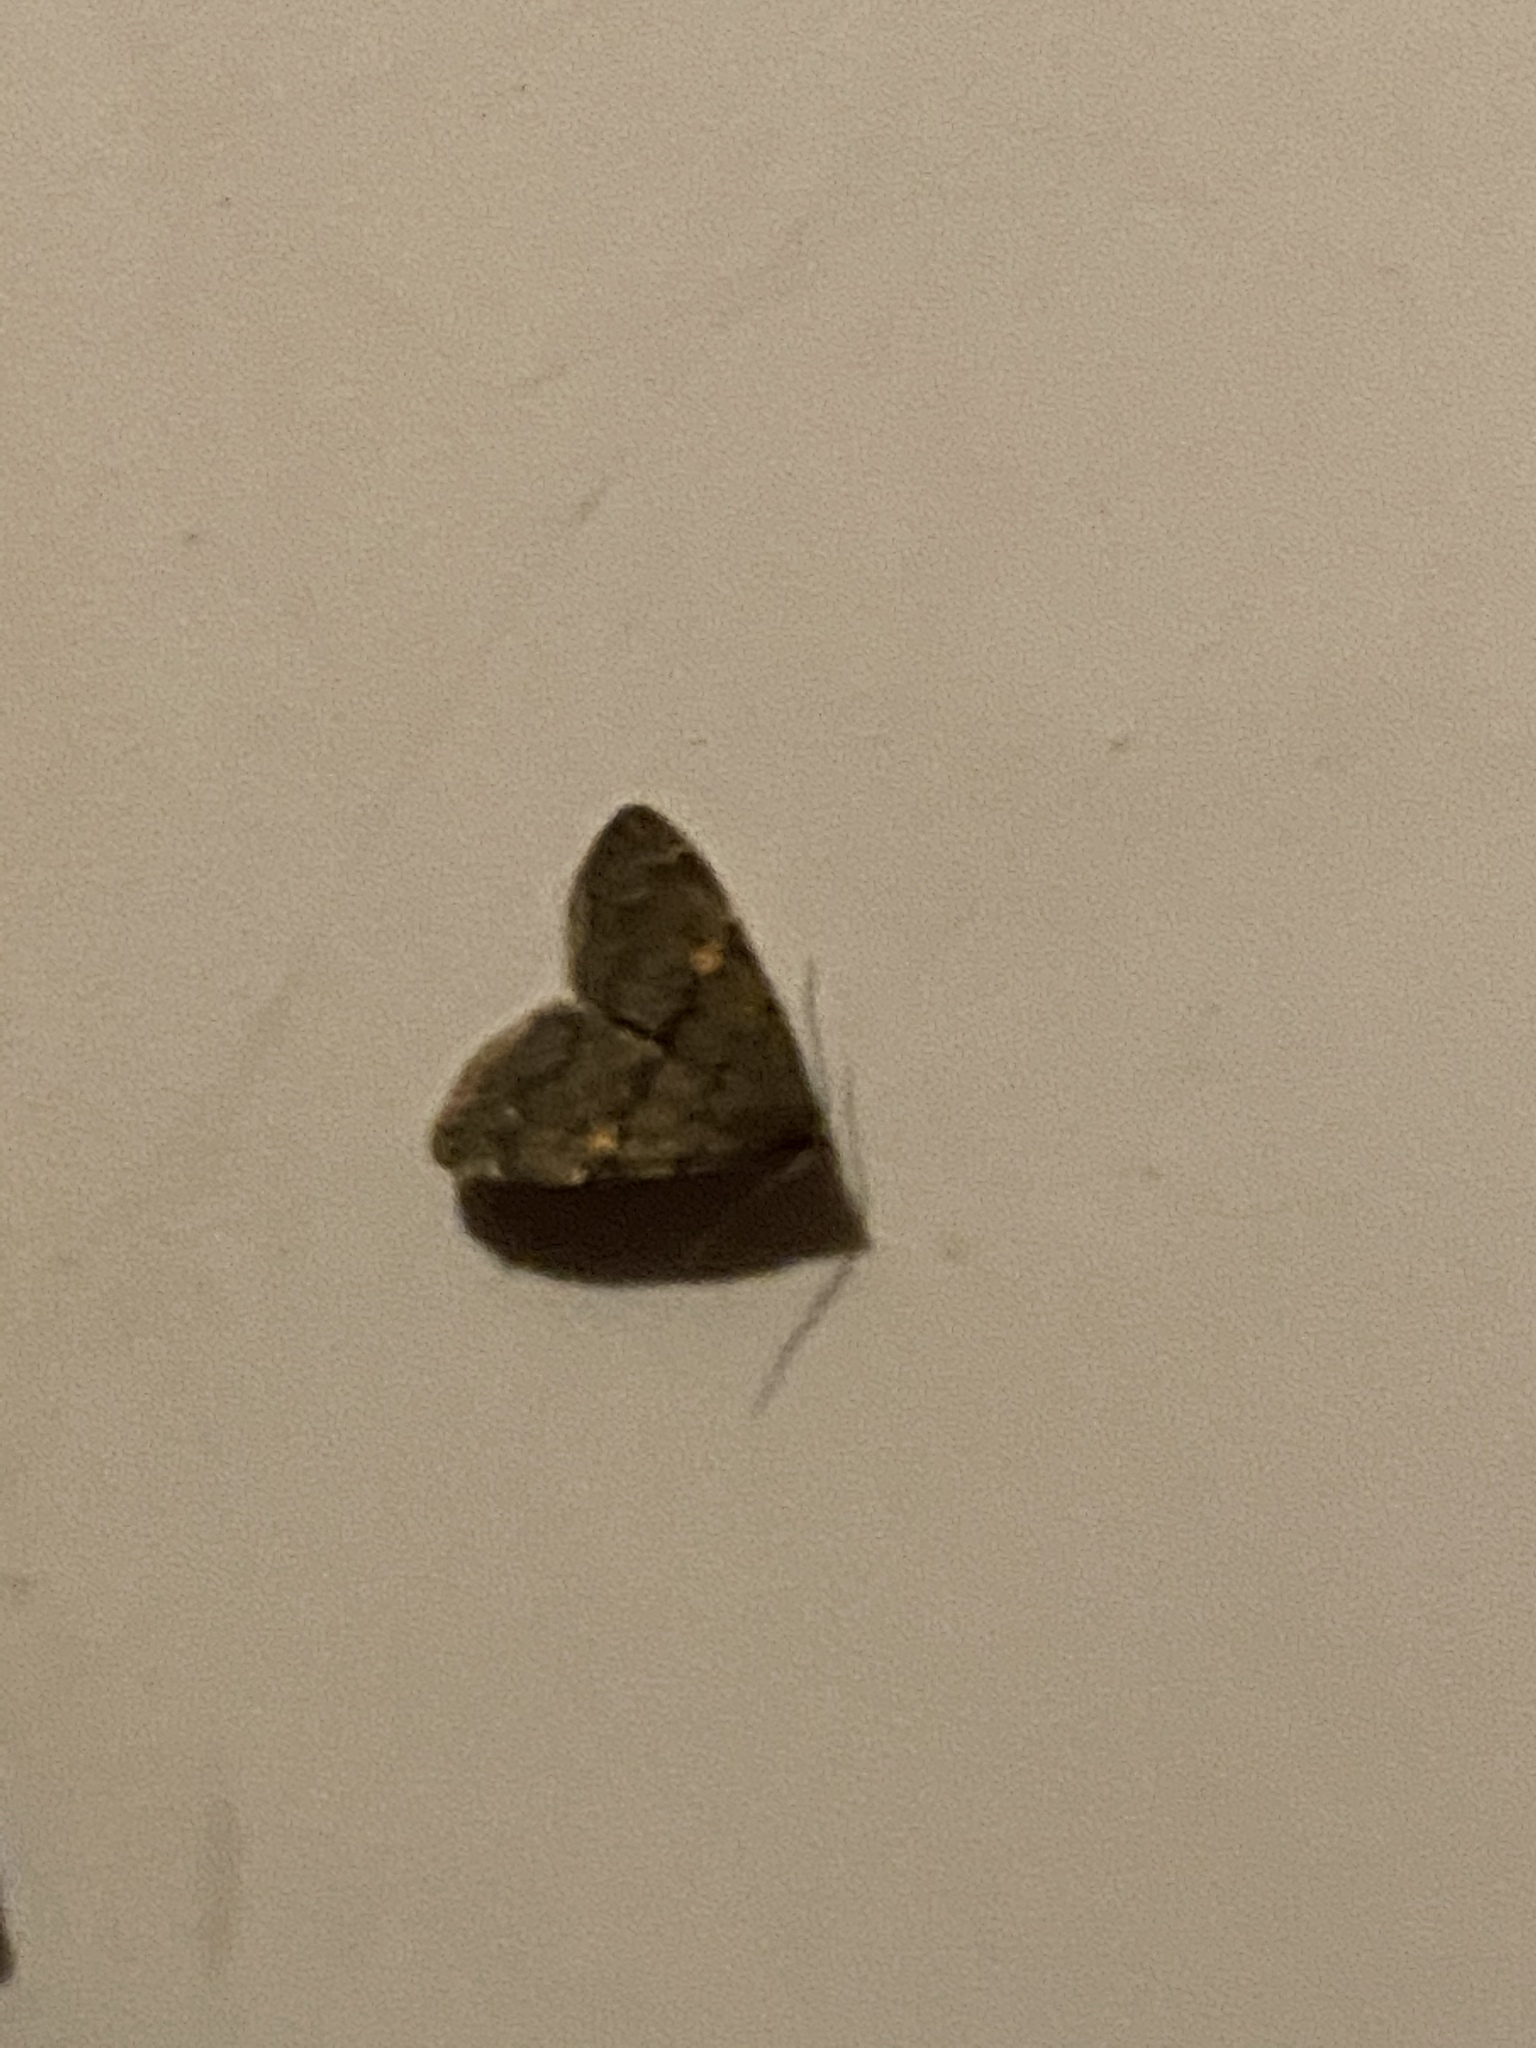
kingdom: Animalia
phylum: Arthropoda
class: Insecta
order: Lepidoptera
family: Erebidae
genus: Idia
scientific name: Idia diminuendis
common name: Orange-spotted idia moth
